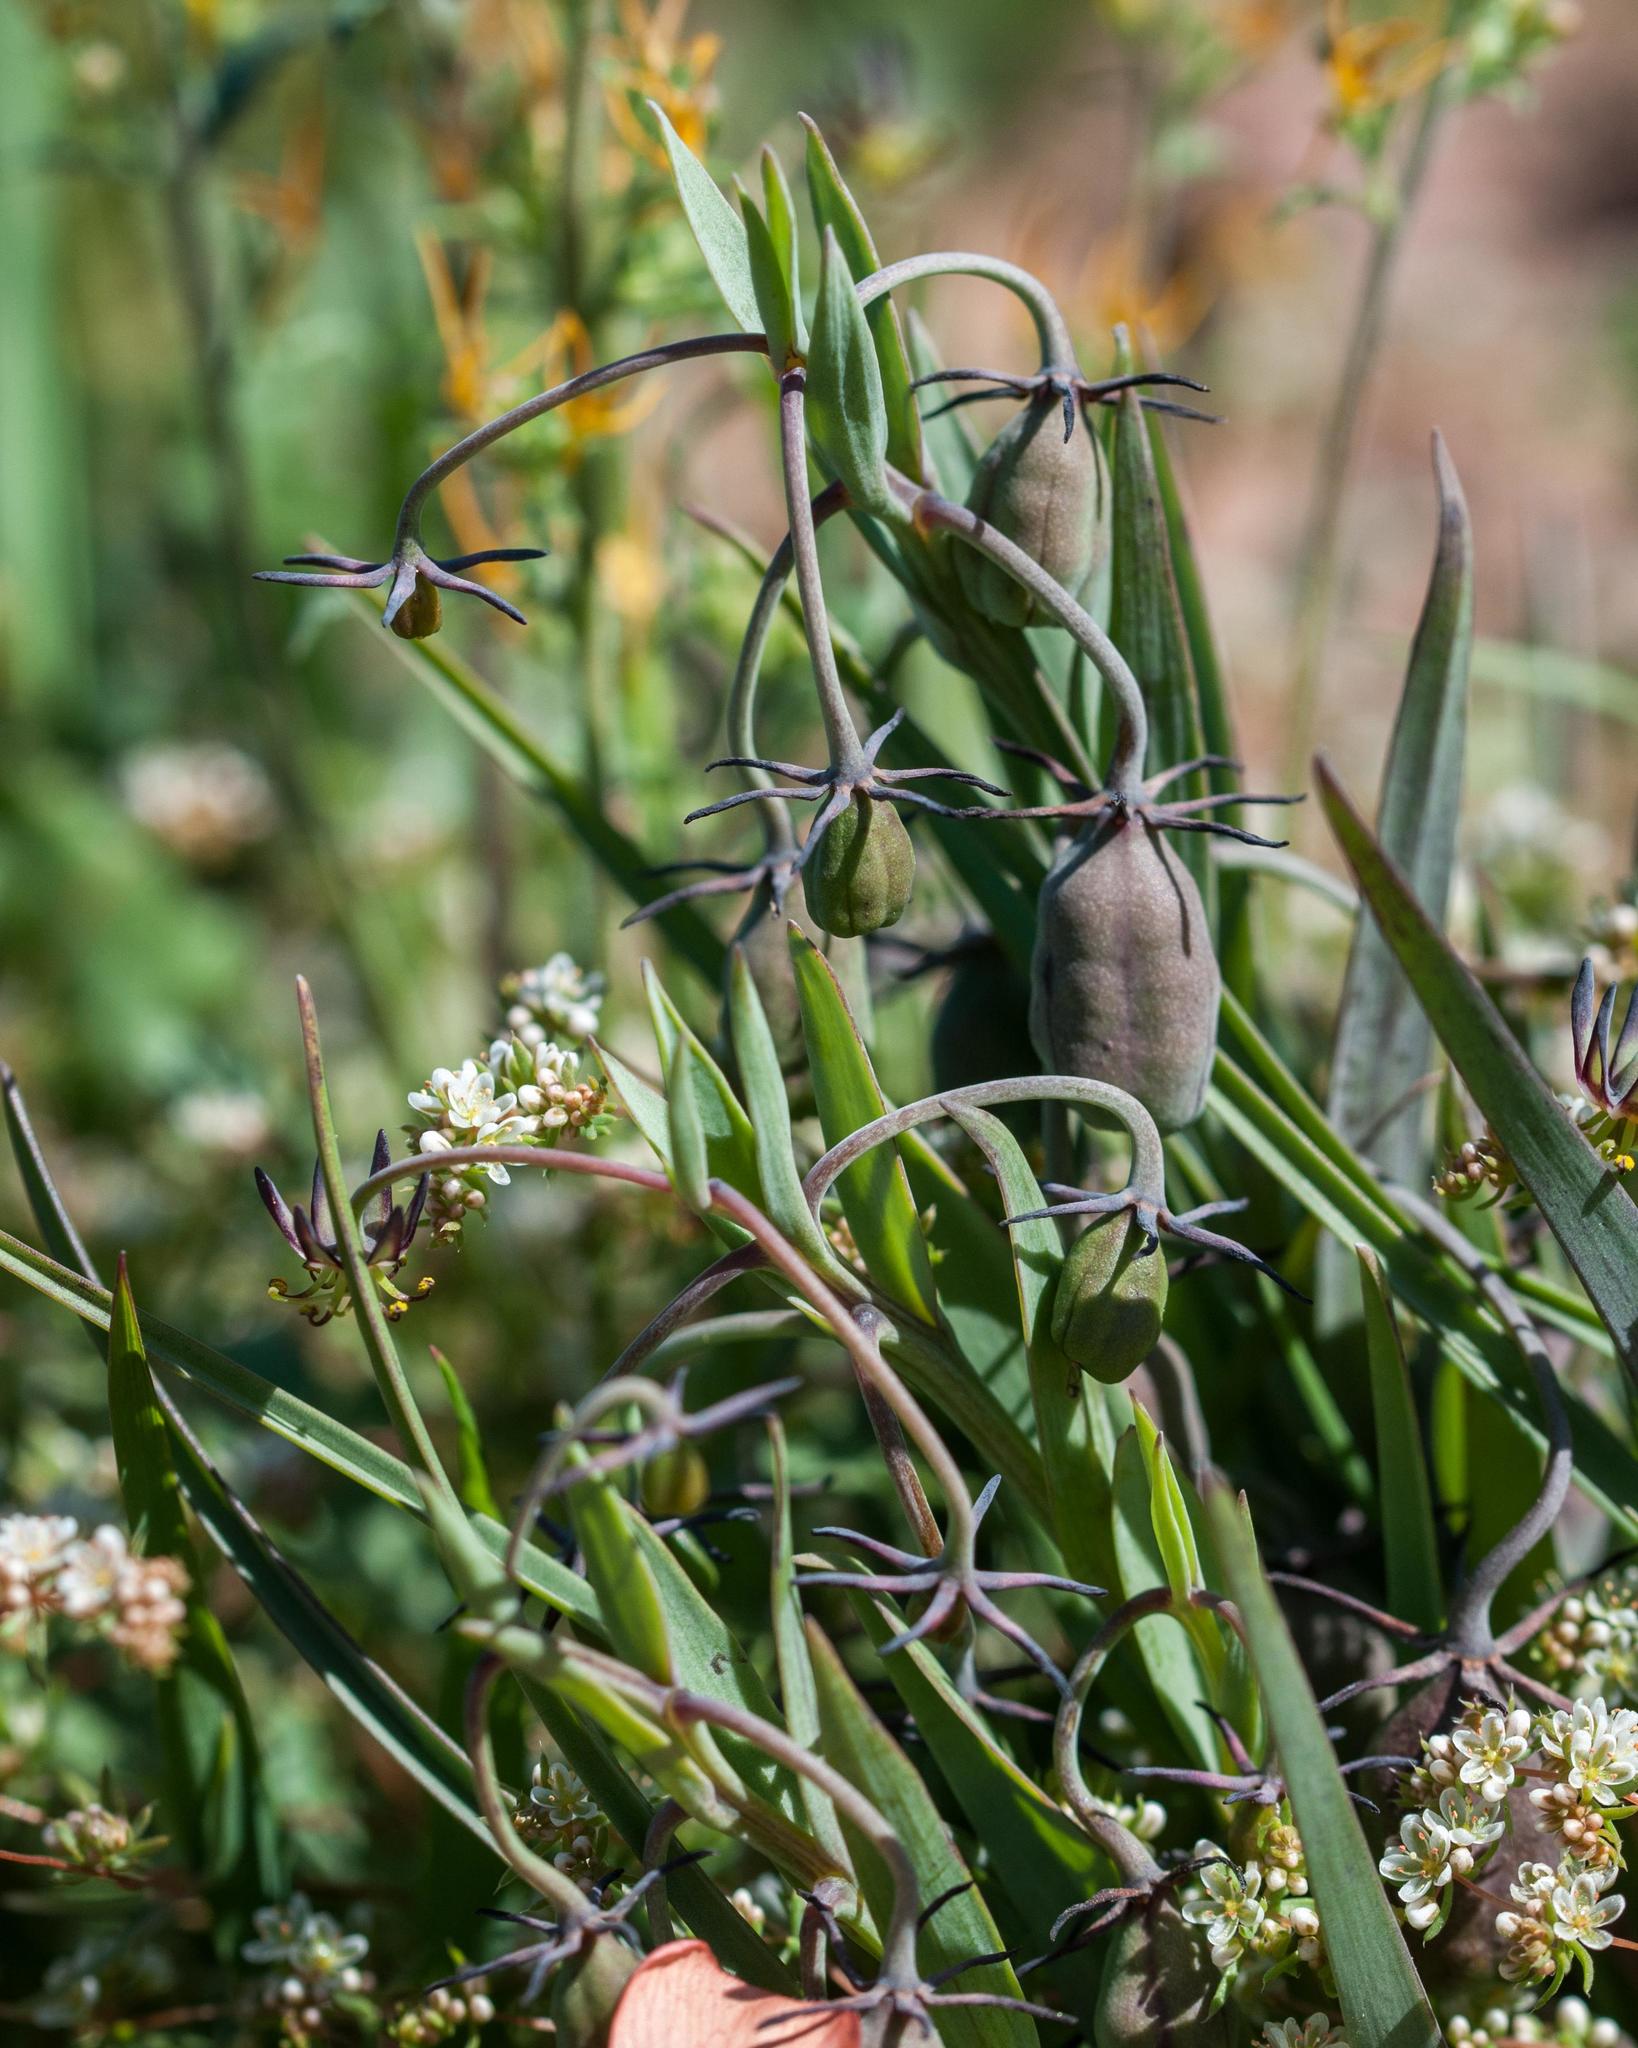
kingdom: Plantae
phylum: Tracheophyta
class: Liliopsida
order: Liliales
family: Colchicaceae
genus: Ornithoglossum
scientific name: Ornithoglossum viride
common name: Cape poison-onion
